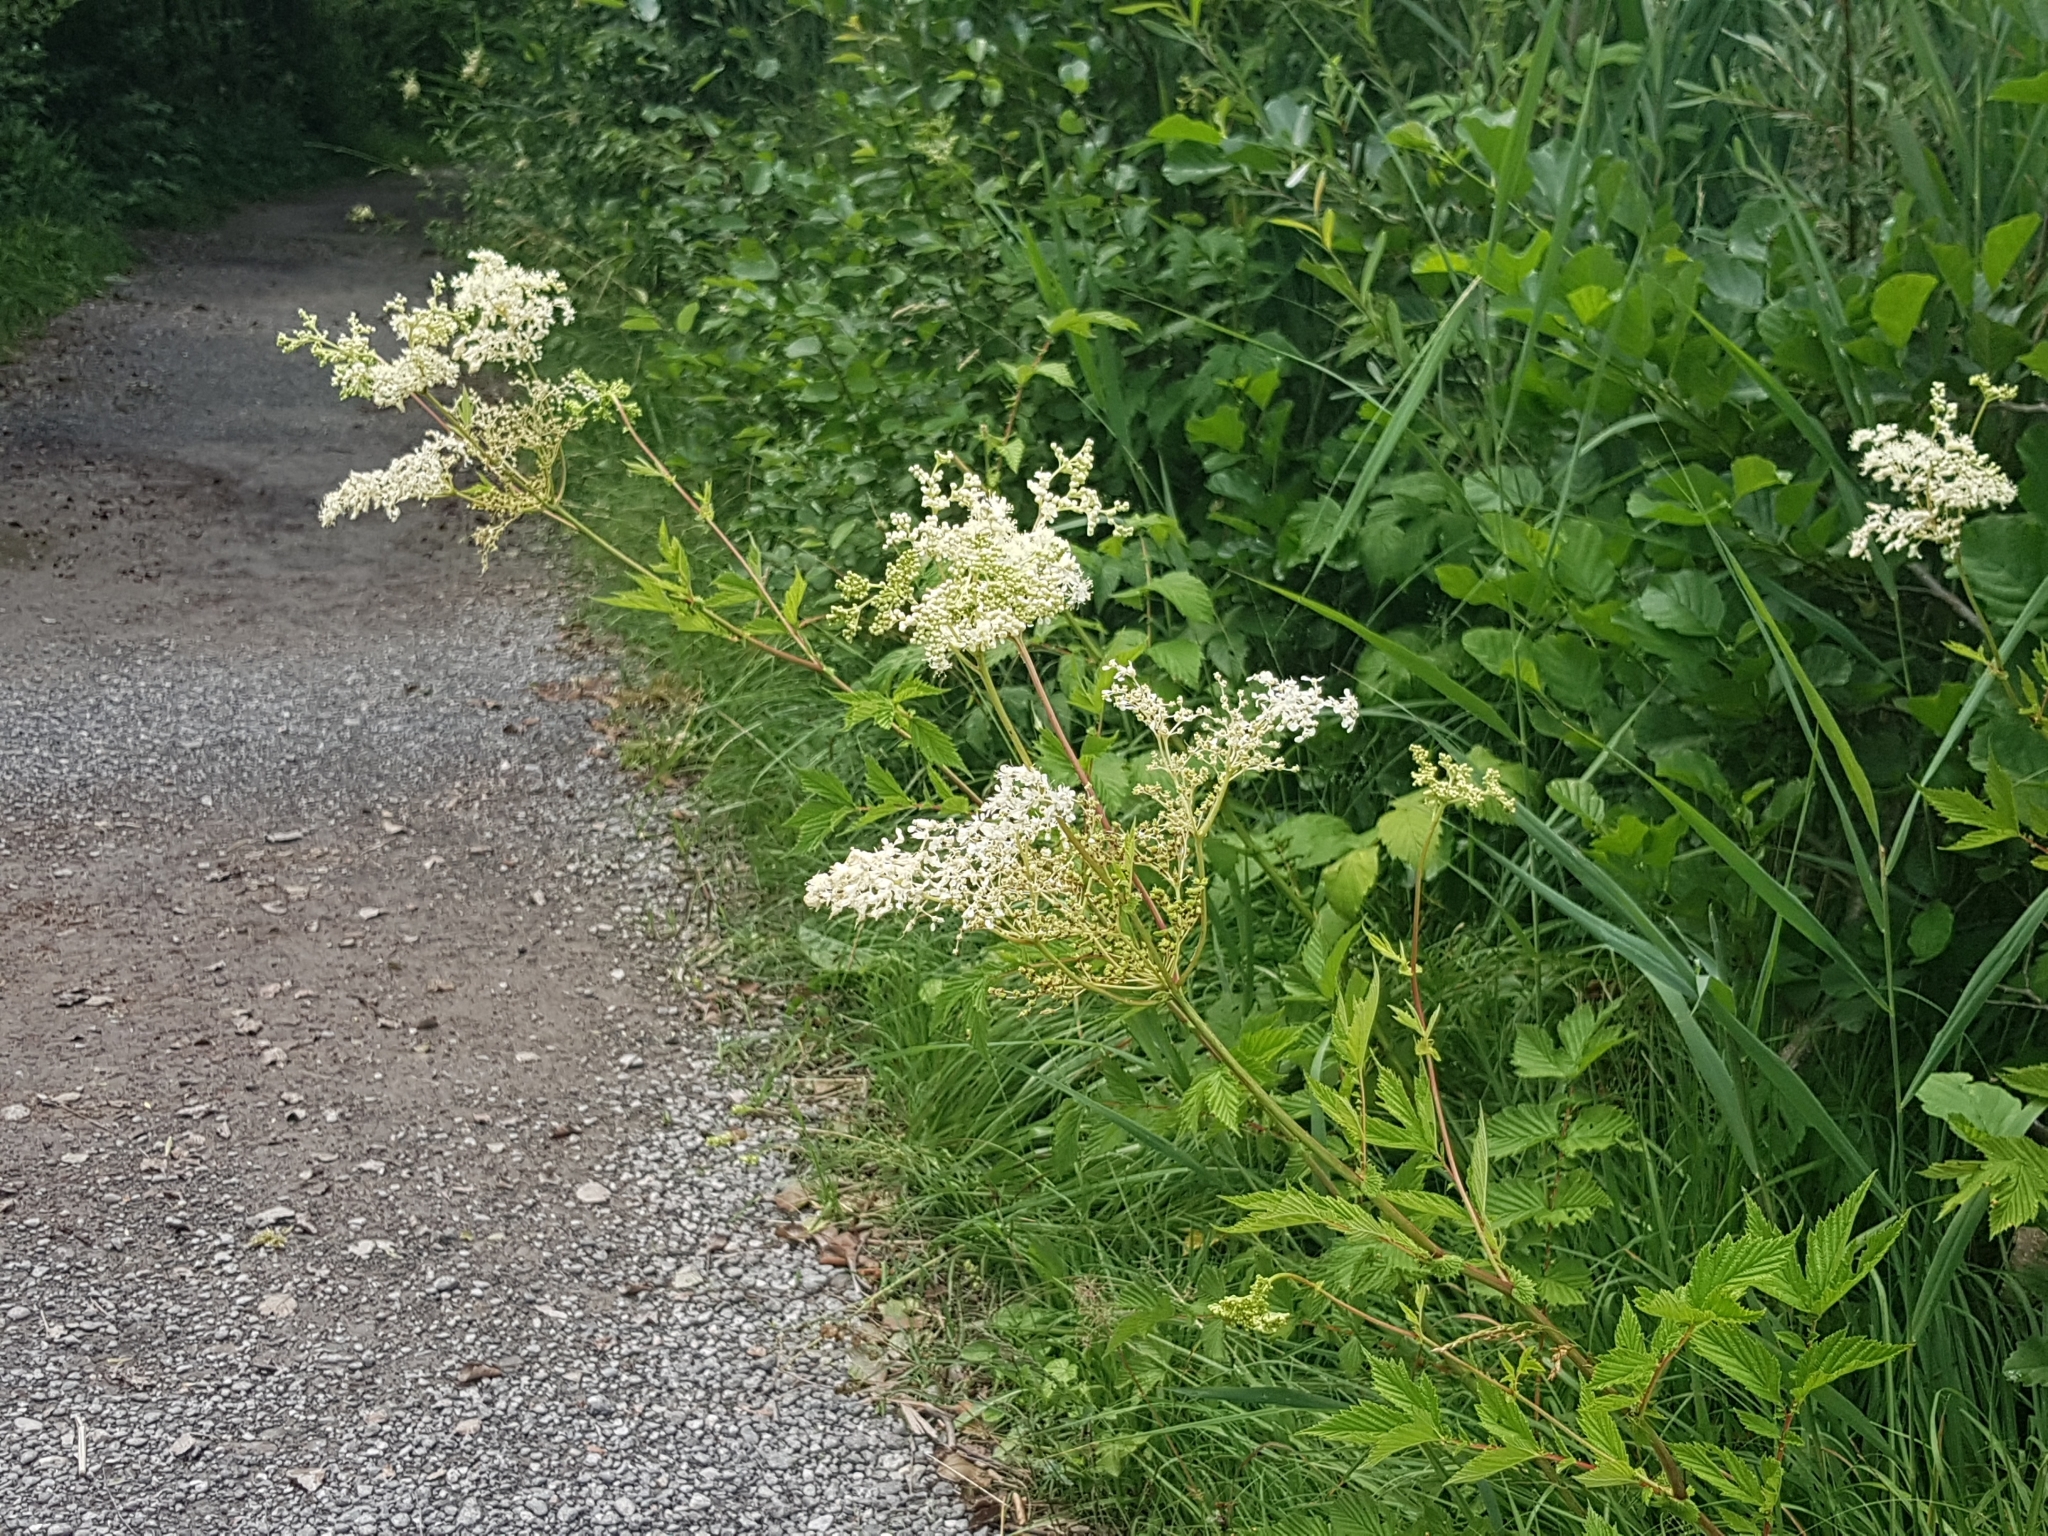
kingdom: Plantae
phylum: Tracheophyta
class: Magnoliopsida
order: Rosales
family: Rosaceae
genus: Filipendula
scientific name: Filipendula ulmaria
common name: Meadowsweet
